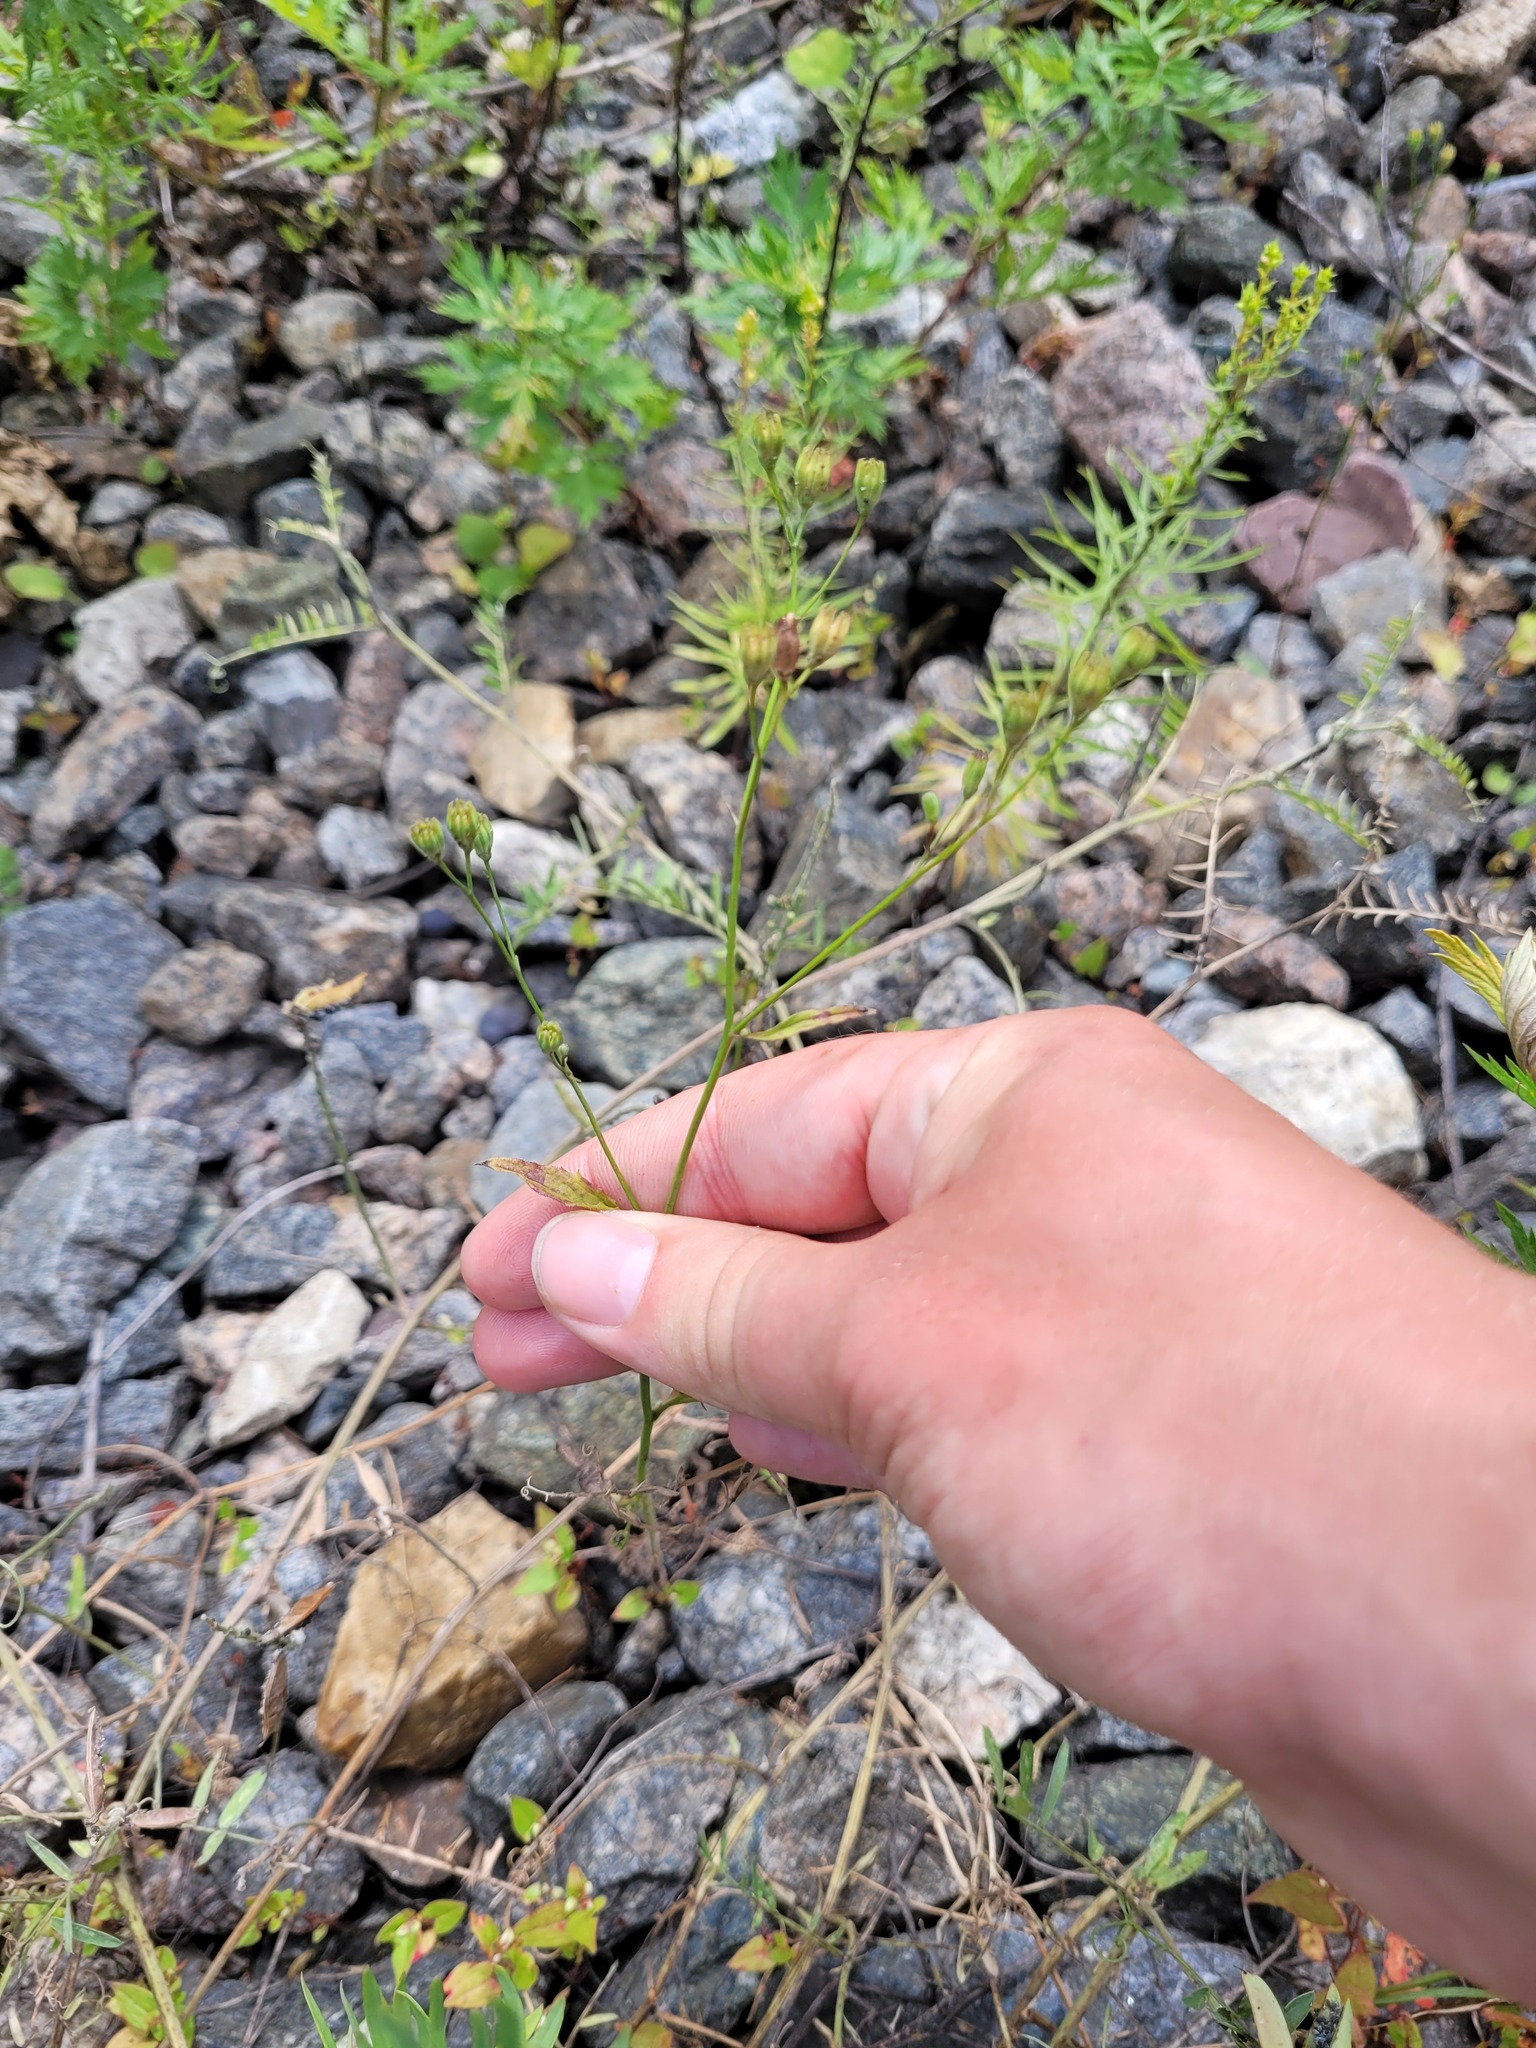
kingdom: Plantae
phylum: Tracheophyta
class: Magnoliopsida
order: Asterales
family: Asteraceae
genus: Lapsana
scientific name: Lapsana communis
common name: Nipplewort
